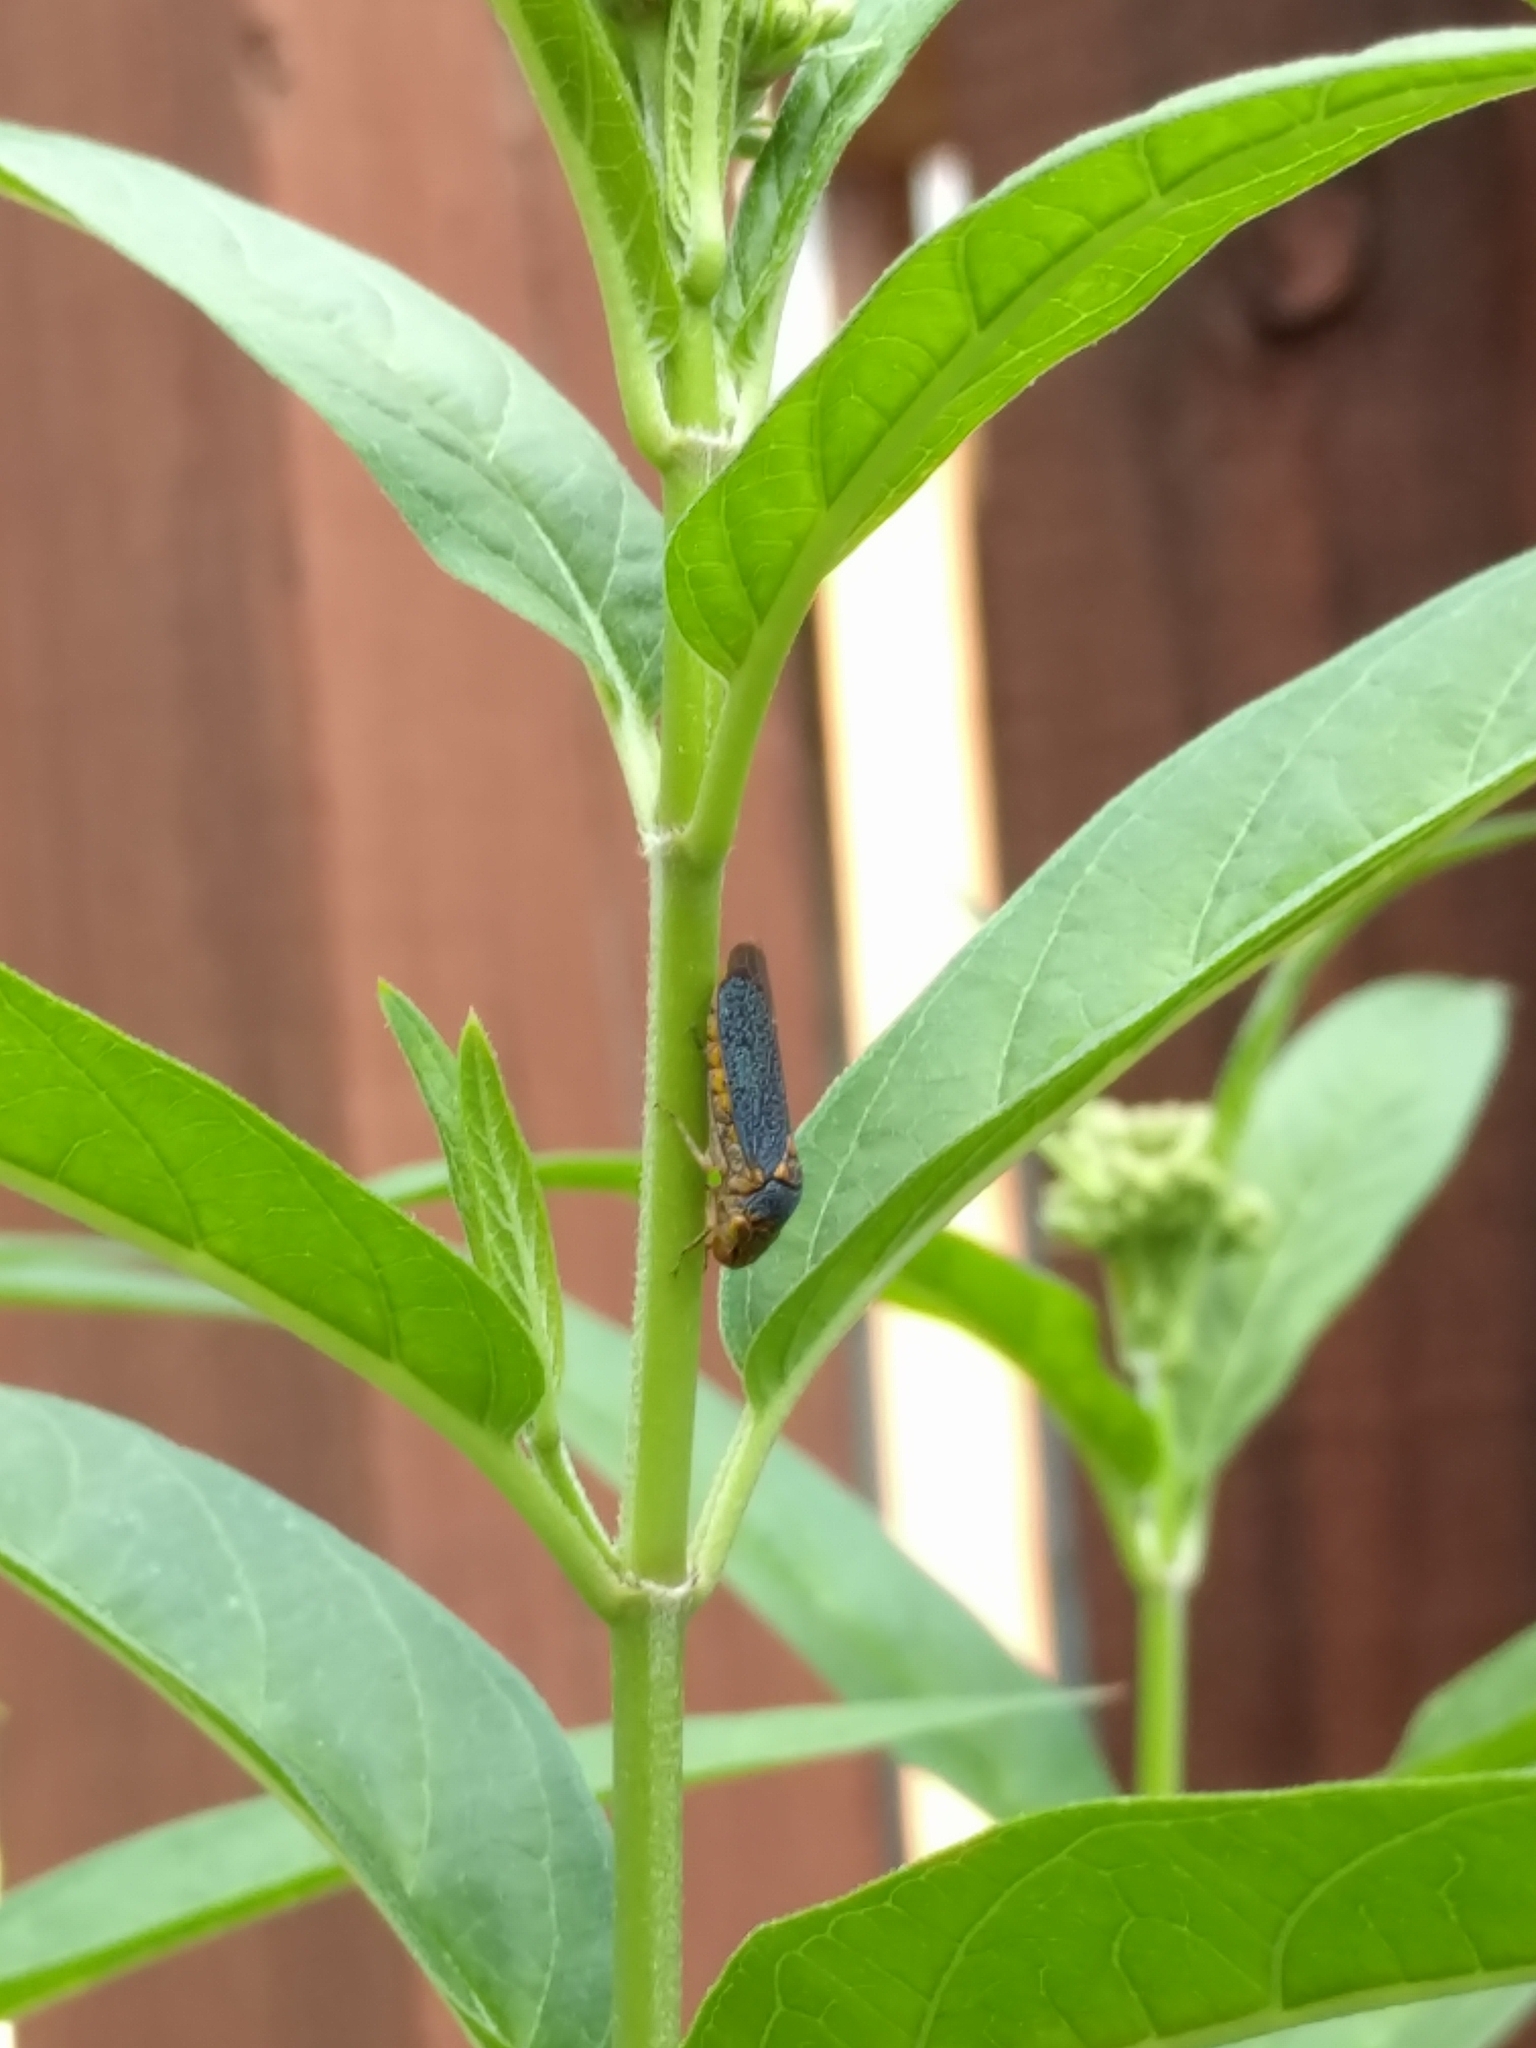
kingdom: Animalia
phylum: Arthropoda
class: Insecta
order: Hemiptera
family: Cicadellidae
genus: Oncometopia
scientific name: Oncometopia orbona
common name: Broad-headed sharpshooter
